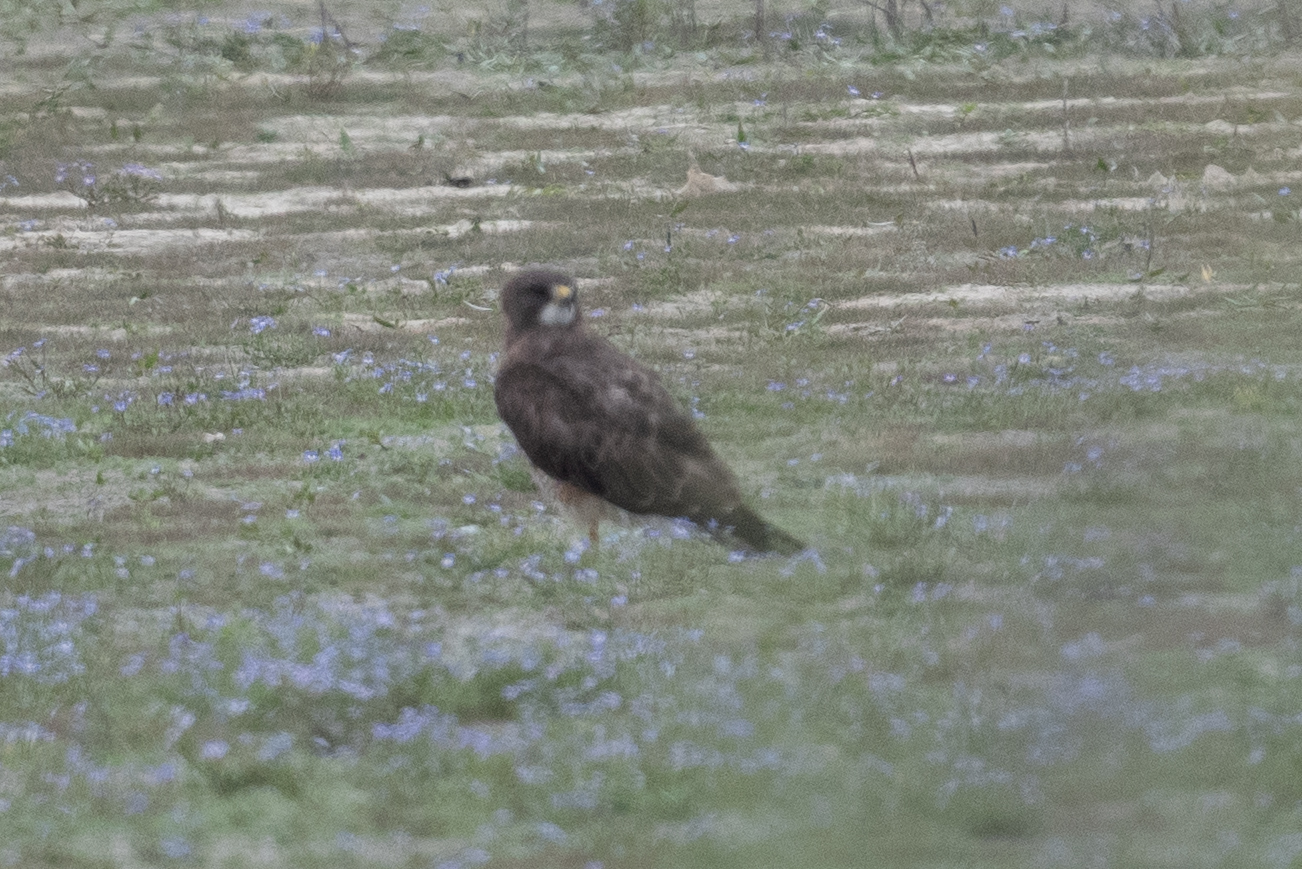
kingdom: Animalia
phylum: Chordata
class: Aves
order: Accipitriformes
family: Accipitridae
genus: Buteo
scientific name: Buteo swainsoni
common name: Swainson's hawk
